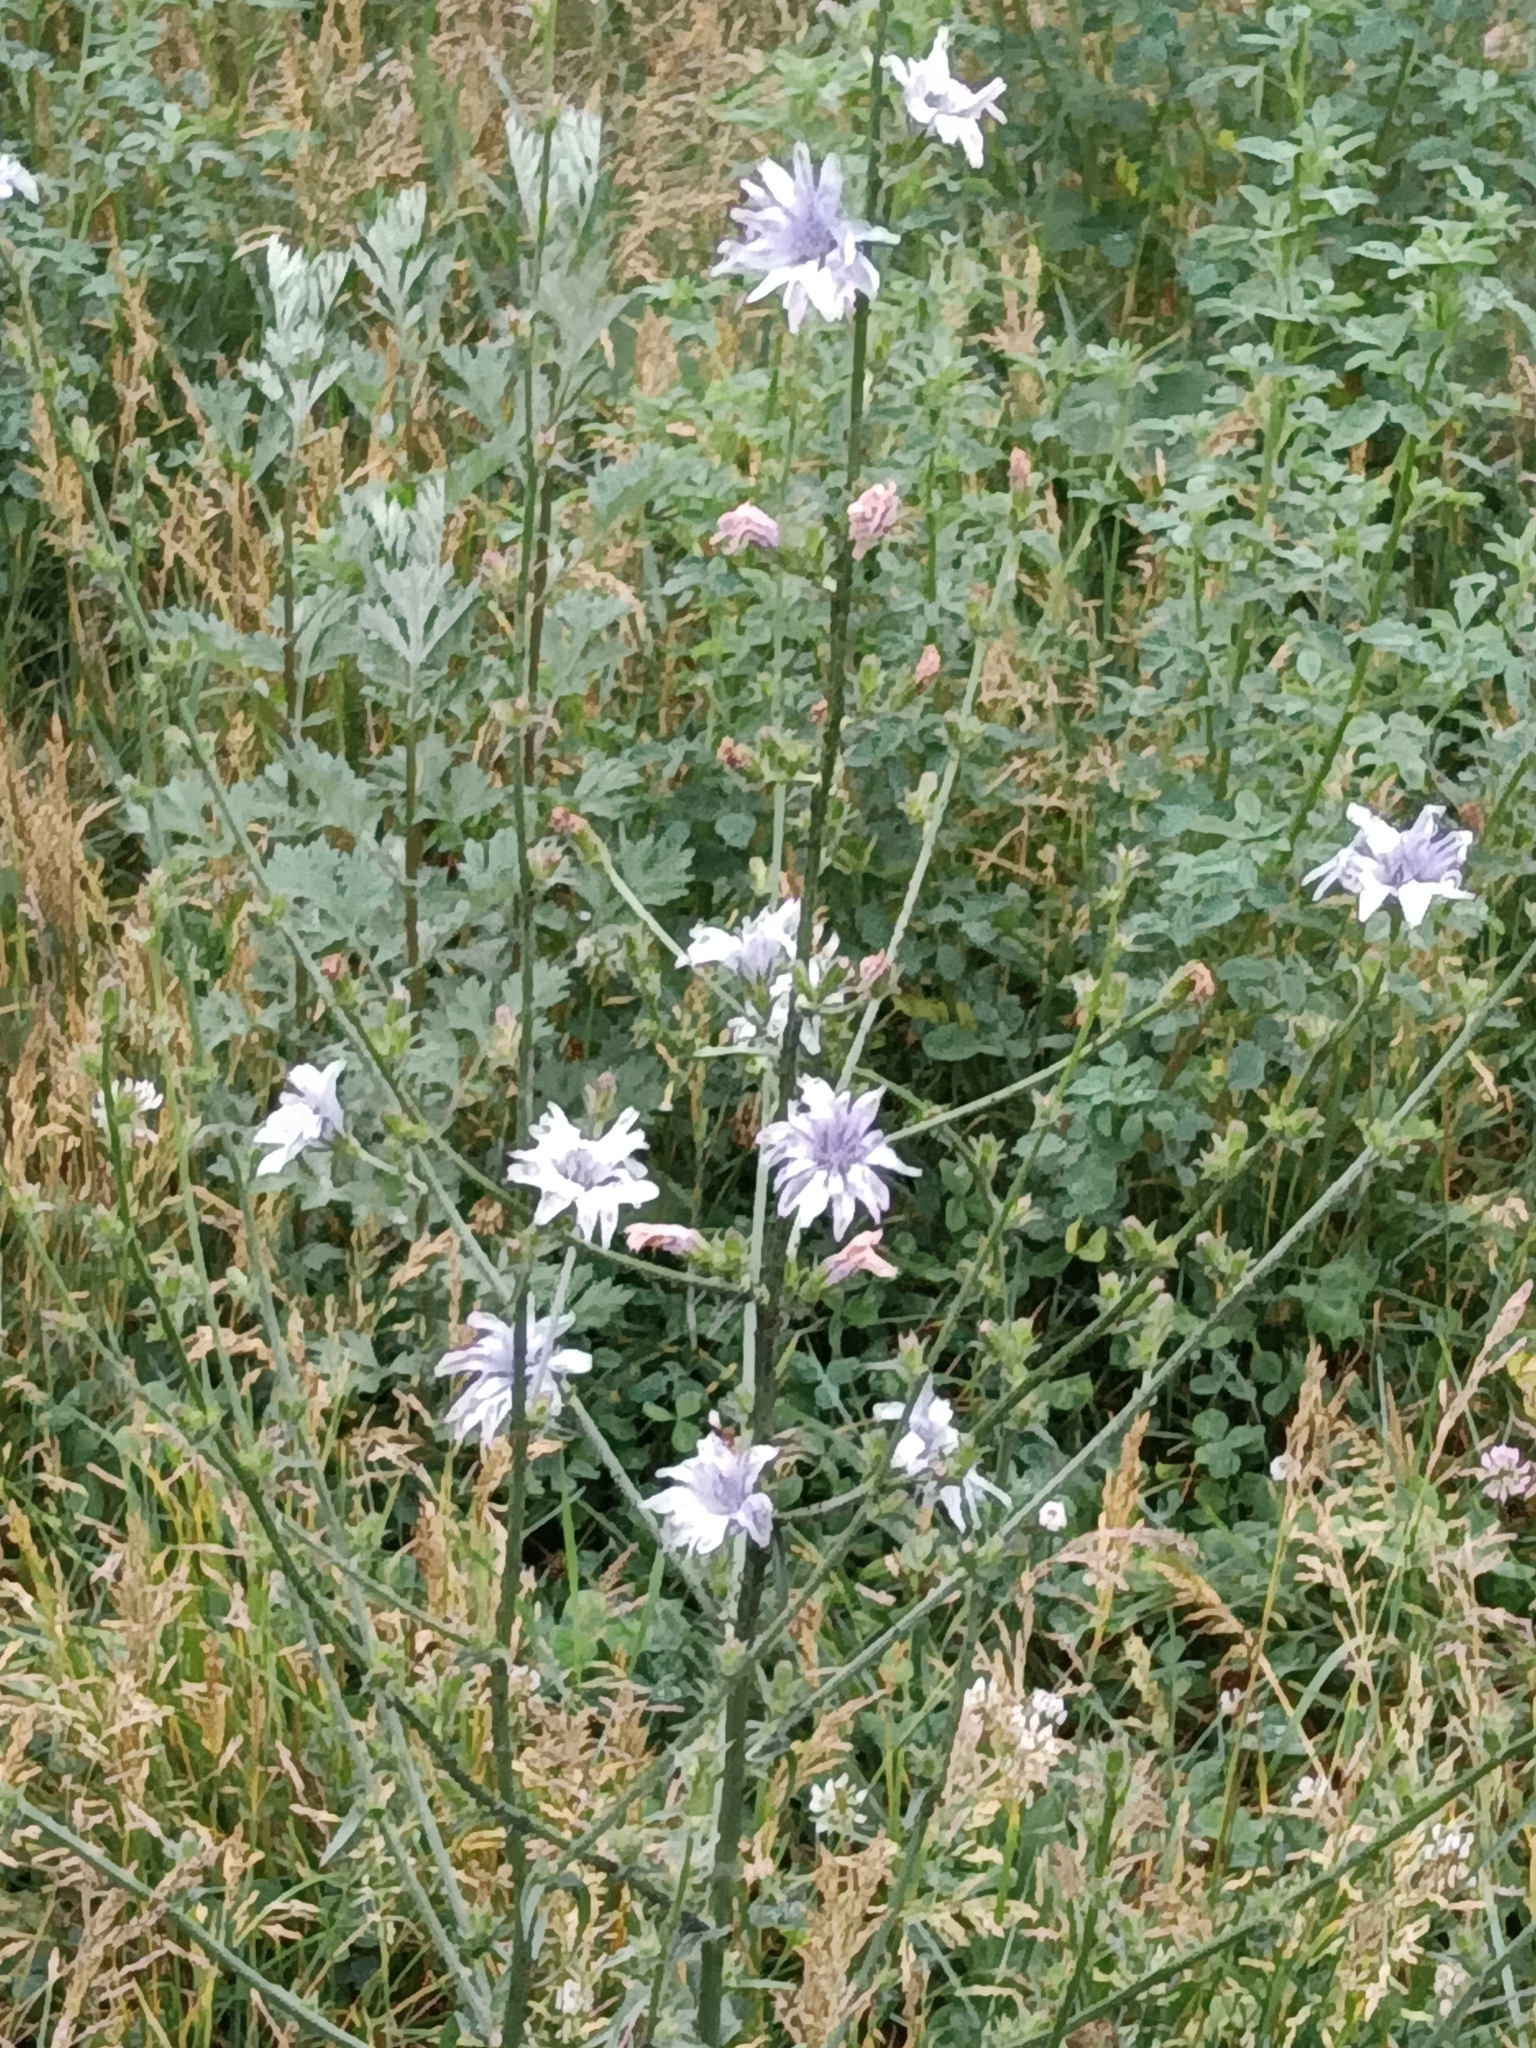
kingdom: Plantae
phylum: Tracheophyta
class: Magnoliopsida
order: Asterales
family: Asteraceae
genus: Cichorium
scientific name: Cichorium intybus
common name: Chicory
